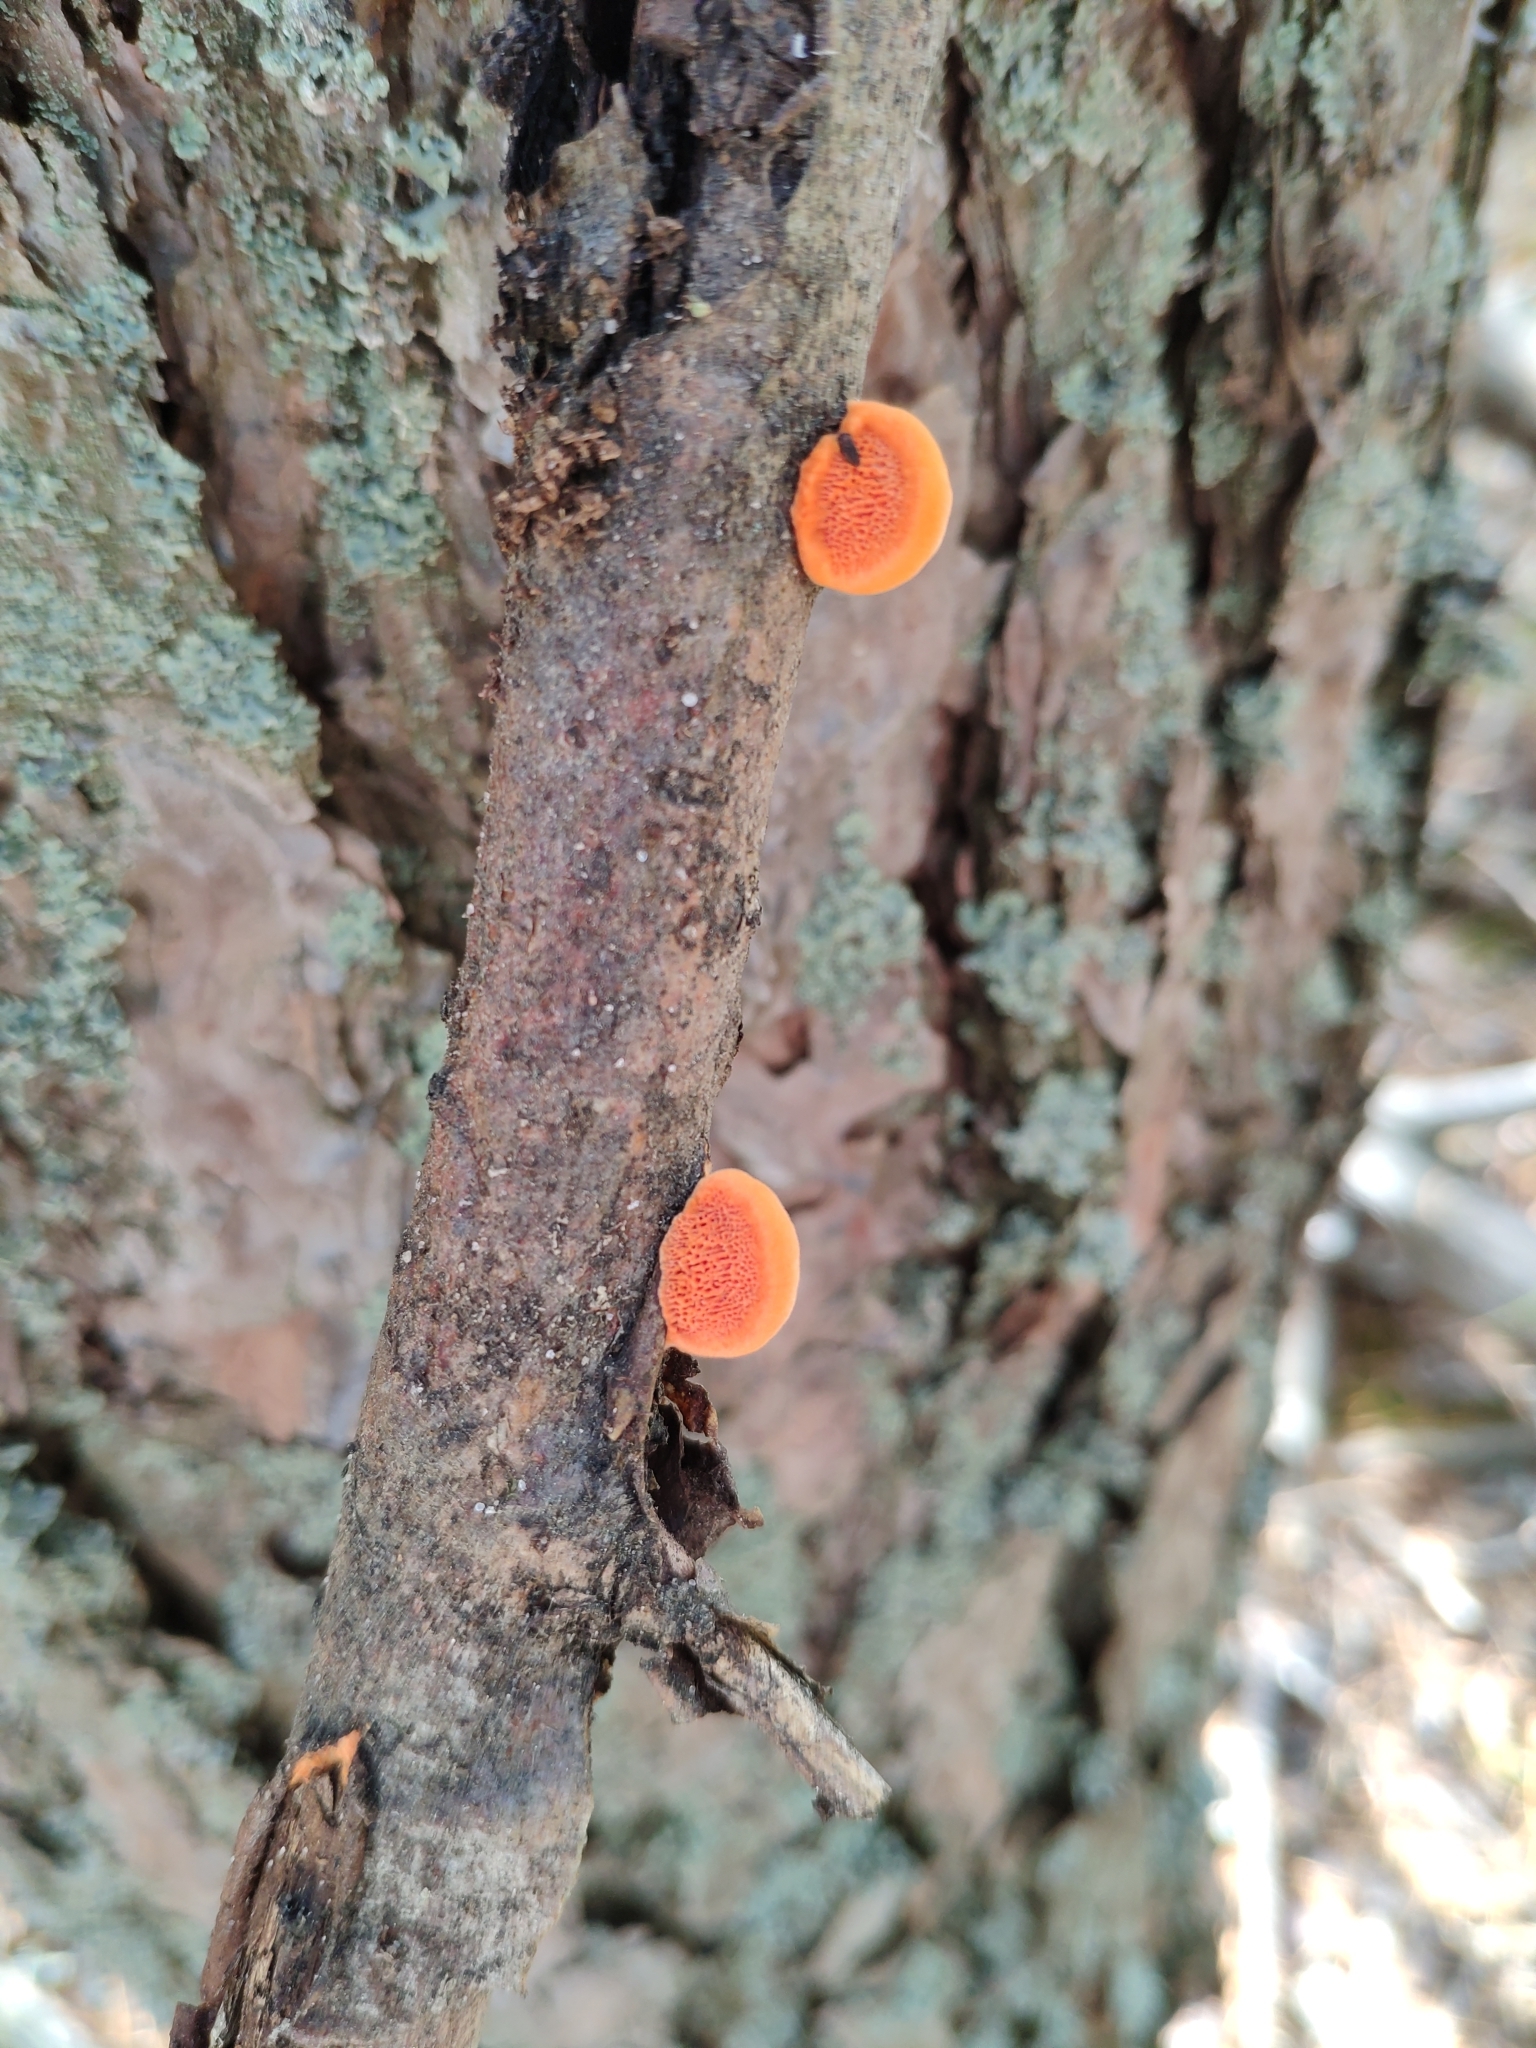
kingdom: Fungi
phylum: Basidiomycota
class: Agaricomycetes
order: Polyporales
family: Polyporaceae
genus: Trametes
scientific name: Trametes cinnabarina
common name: Northern cinnabar polypore
